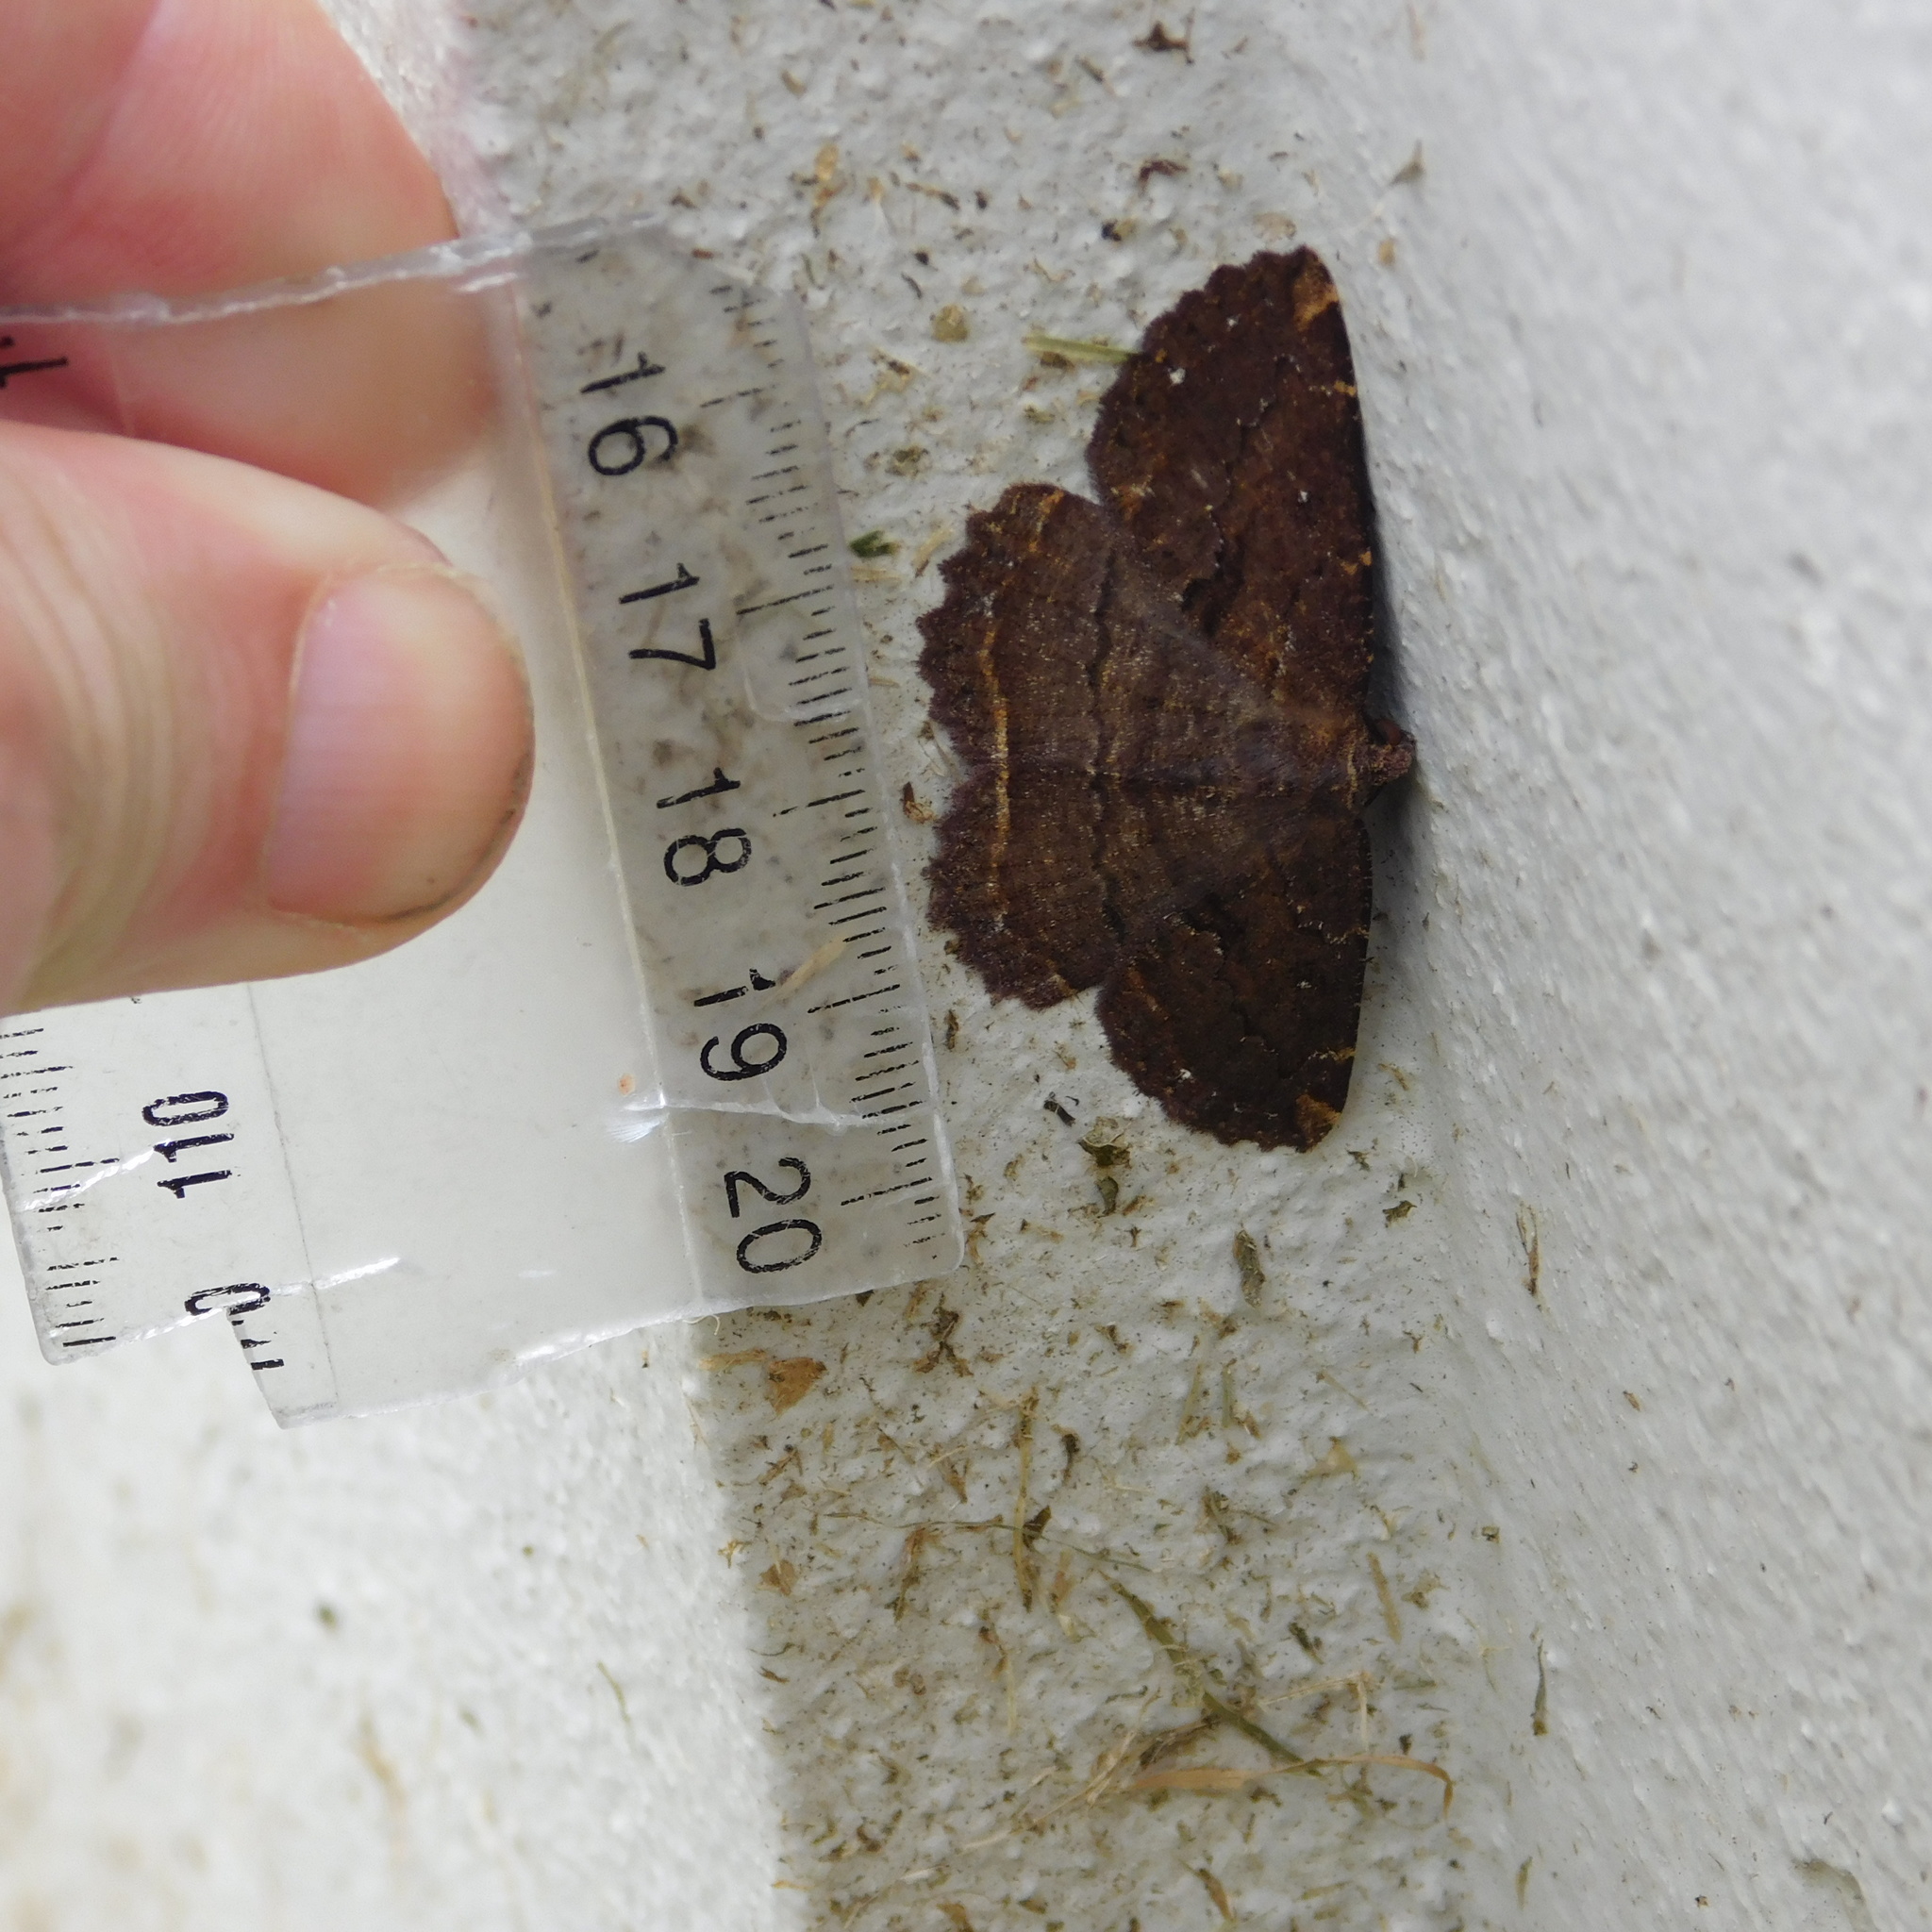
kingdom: Animalia
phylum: Arthropoda
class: Insecta
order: Lepidoptera
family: Geometridae
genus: Gellonia
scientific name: Gellonia dejectaria
